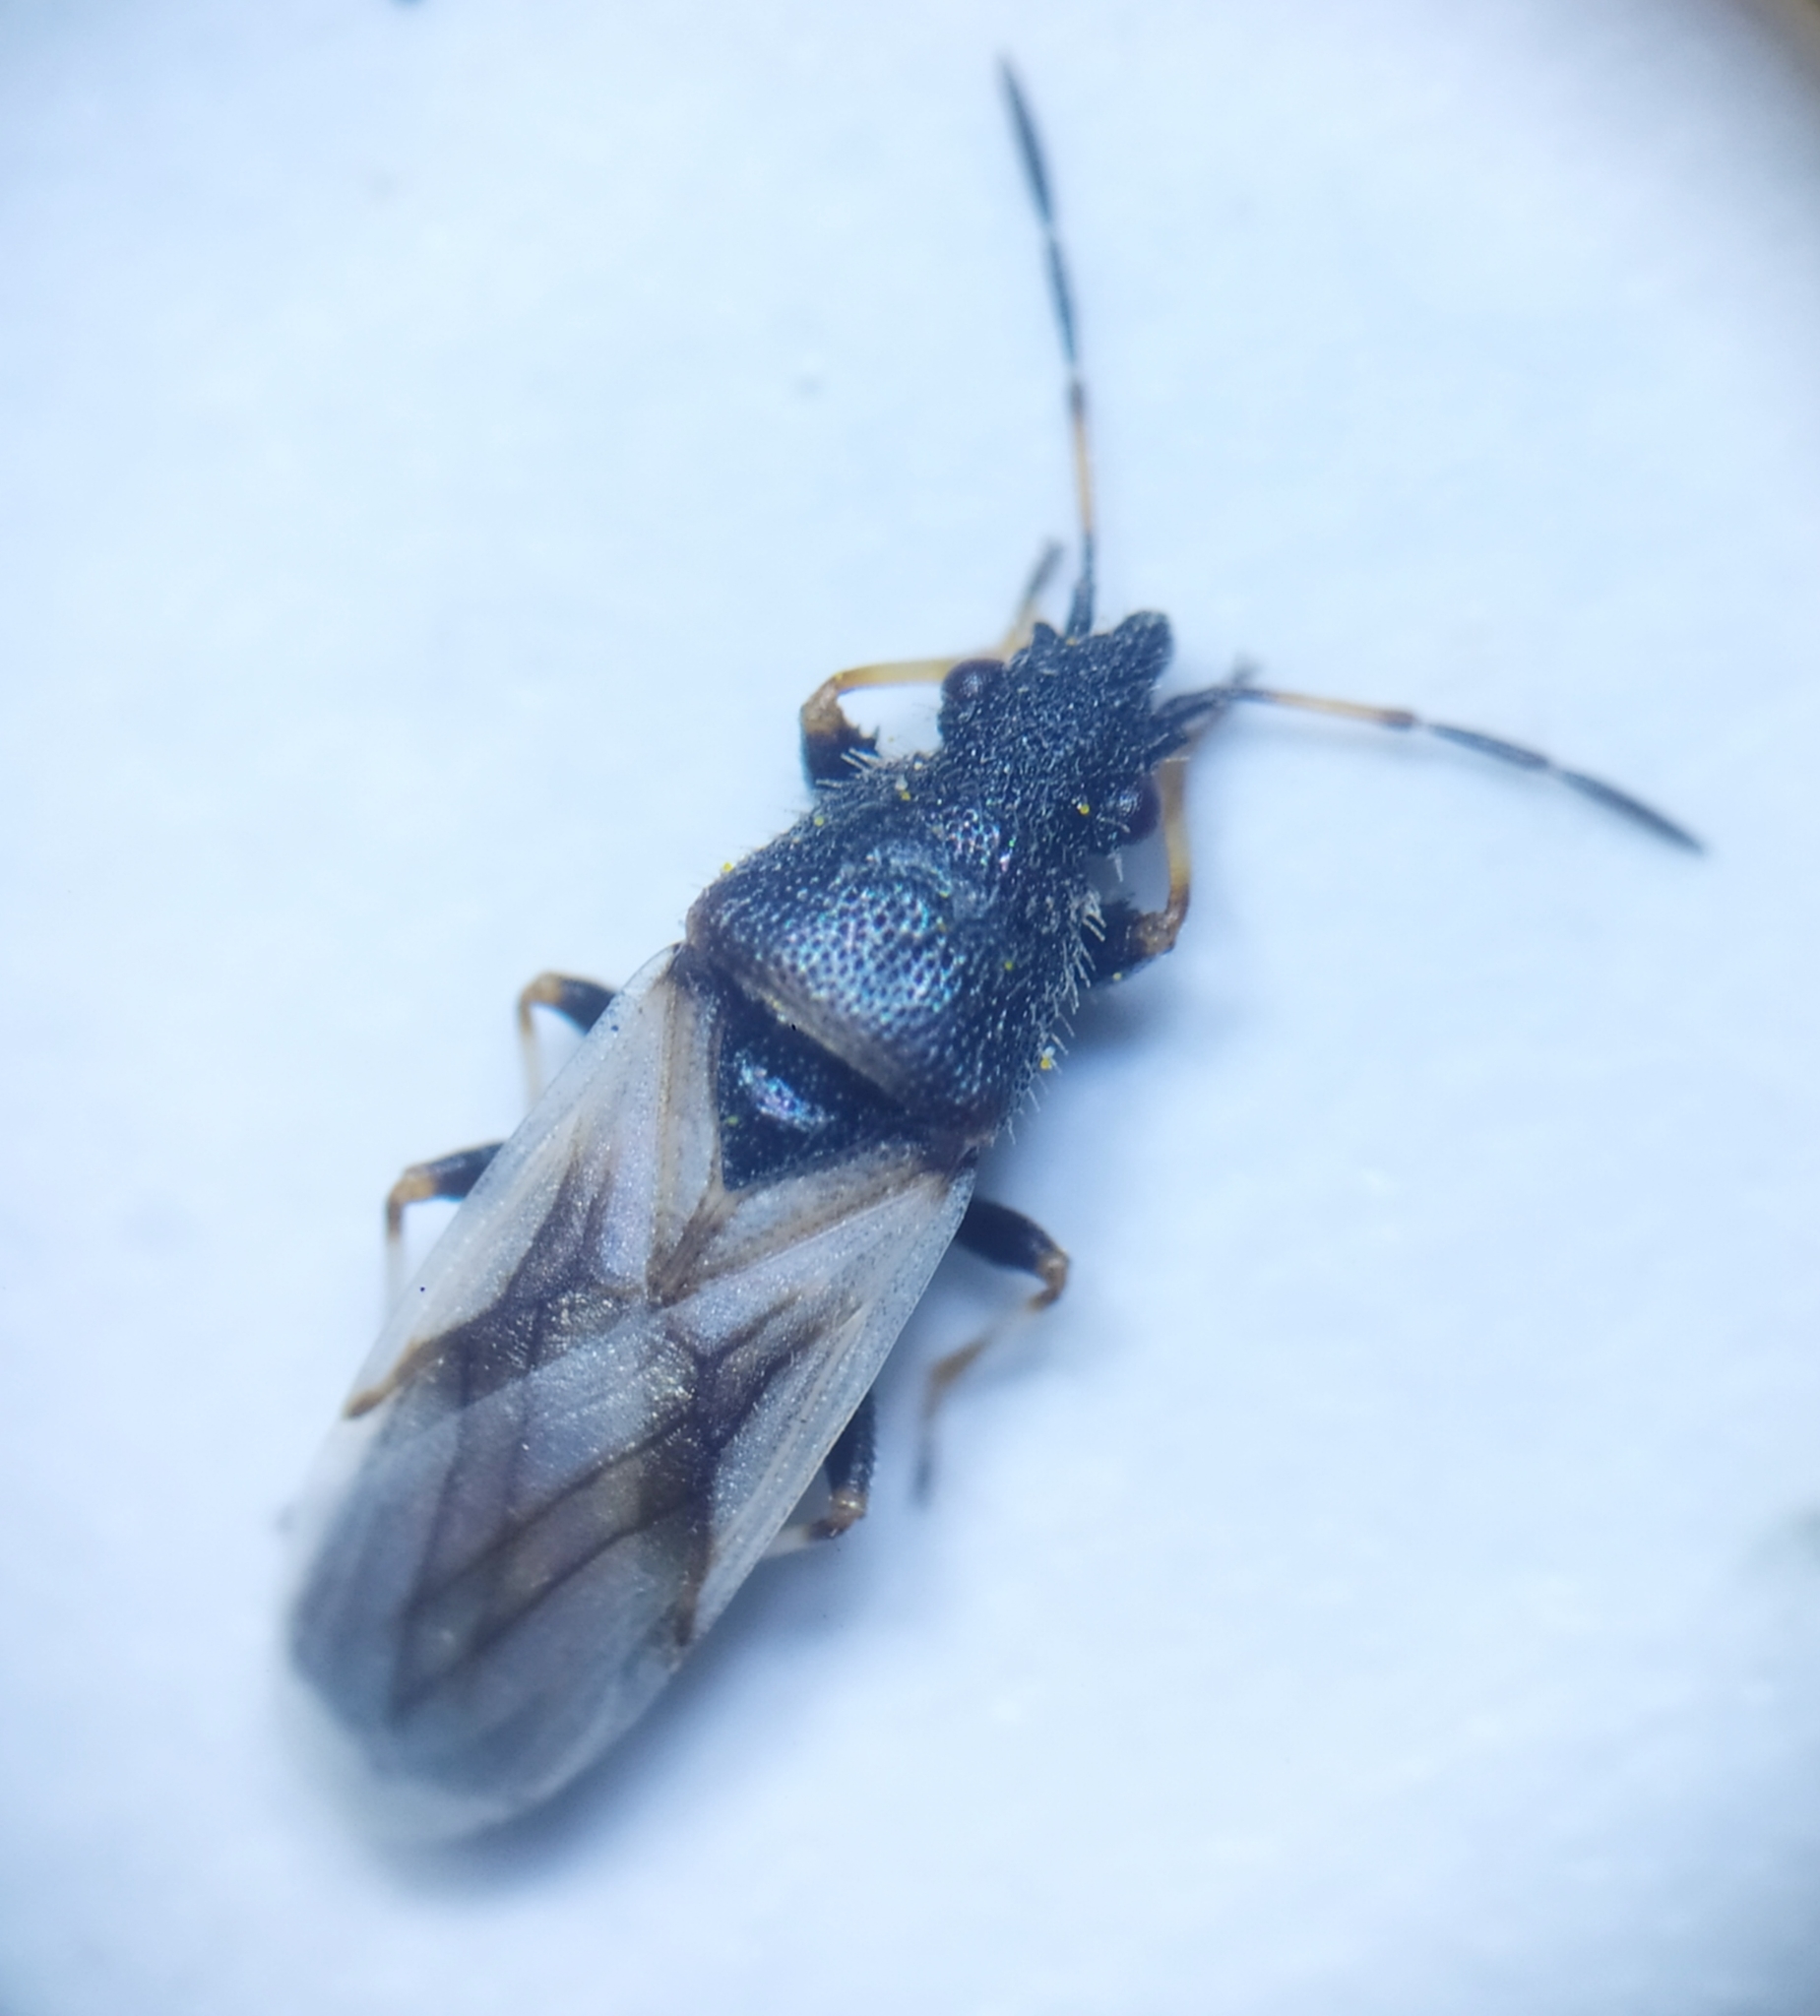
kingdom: Animalia
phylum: Arthropoda
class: Insecta
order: Hemiptera
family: Oxycarenidae
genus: Metopoplax
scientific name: Metopoplax origani
